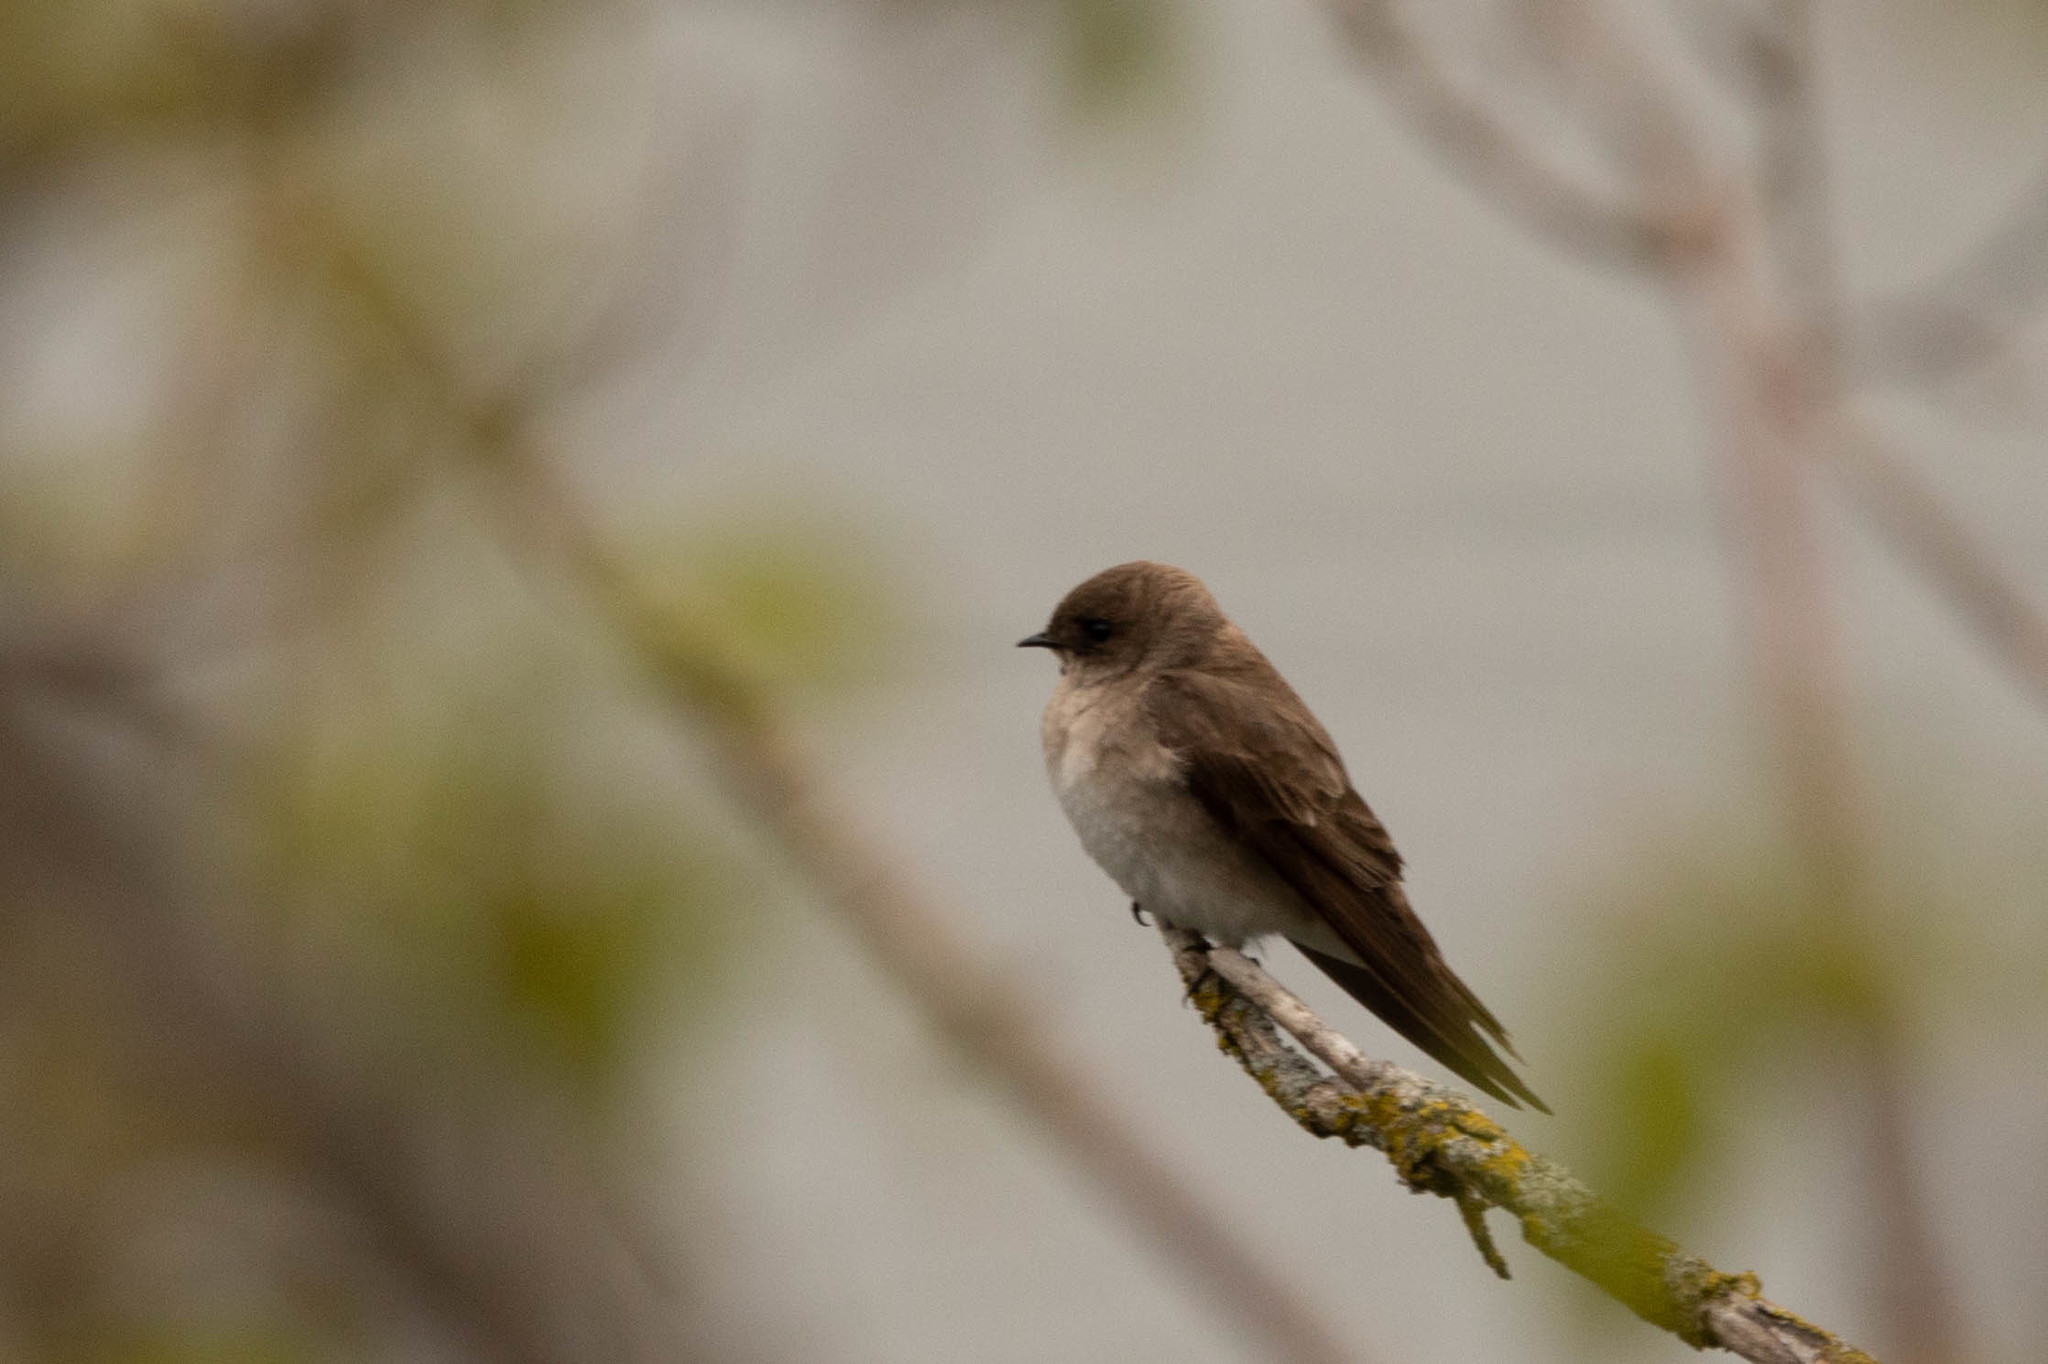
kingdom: Animalia
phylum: Chordata
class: Aves
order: Passeriformes
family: Hirundinidae
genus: Stelgidopteryx
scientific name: Stelgidopteryx serripennis
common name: Northern rough-winged swallow
